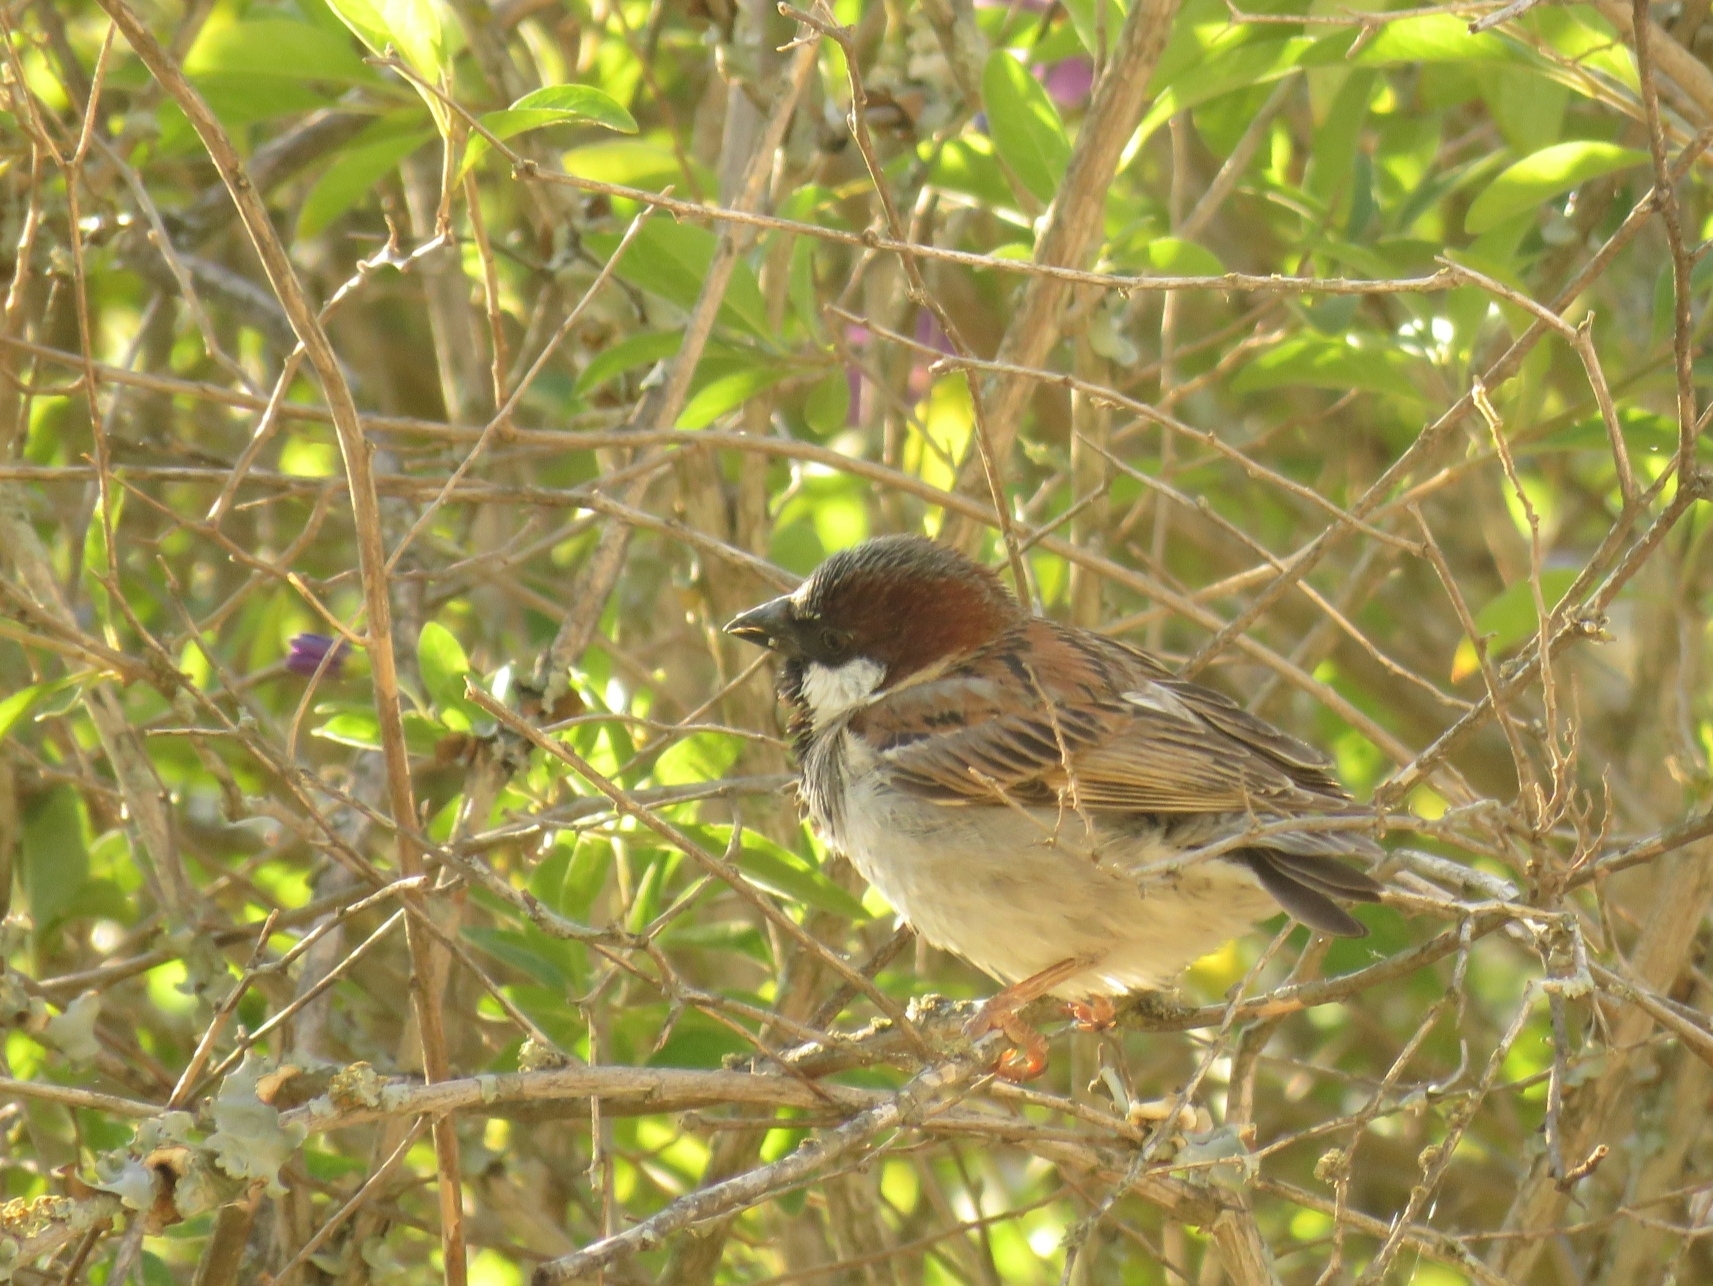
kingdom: Animalia
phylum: Chordata
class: Aves
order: Passeriformes
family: Passeridae
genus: Passer
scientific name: Passer domesticus
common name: House sparrow
